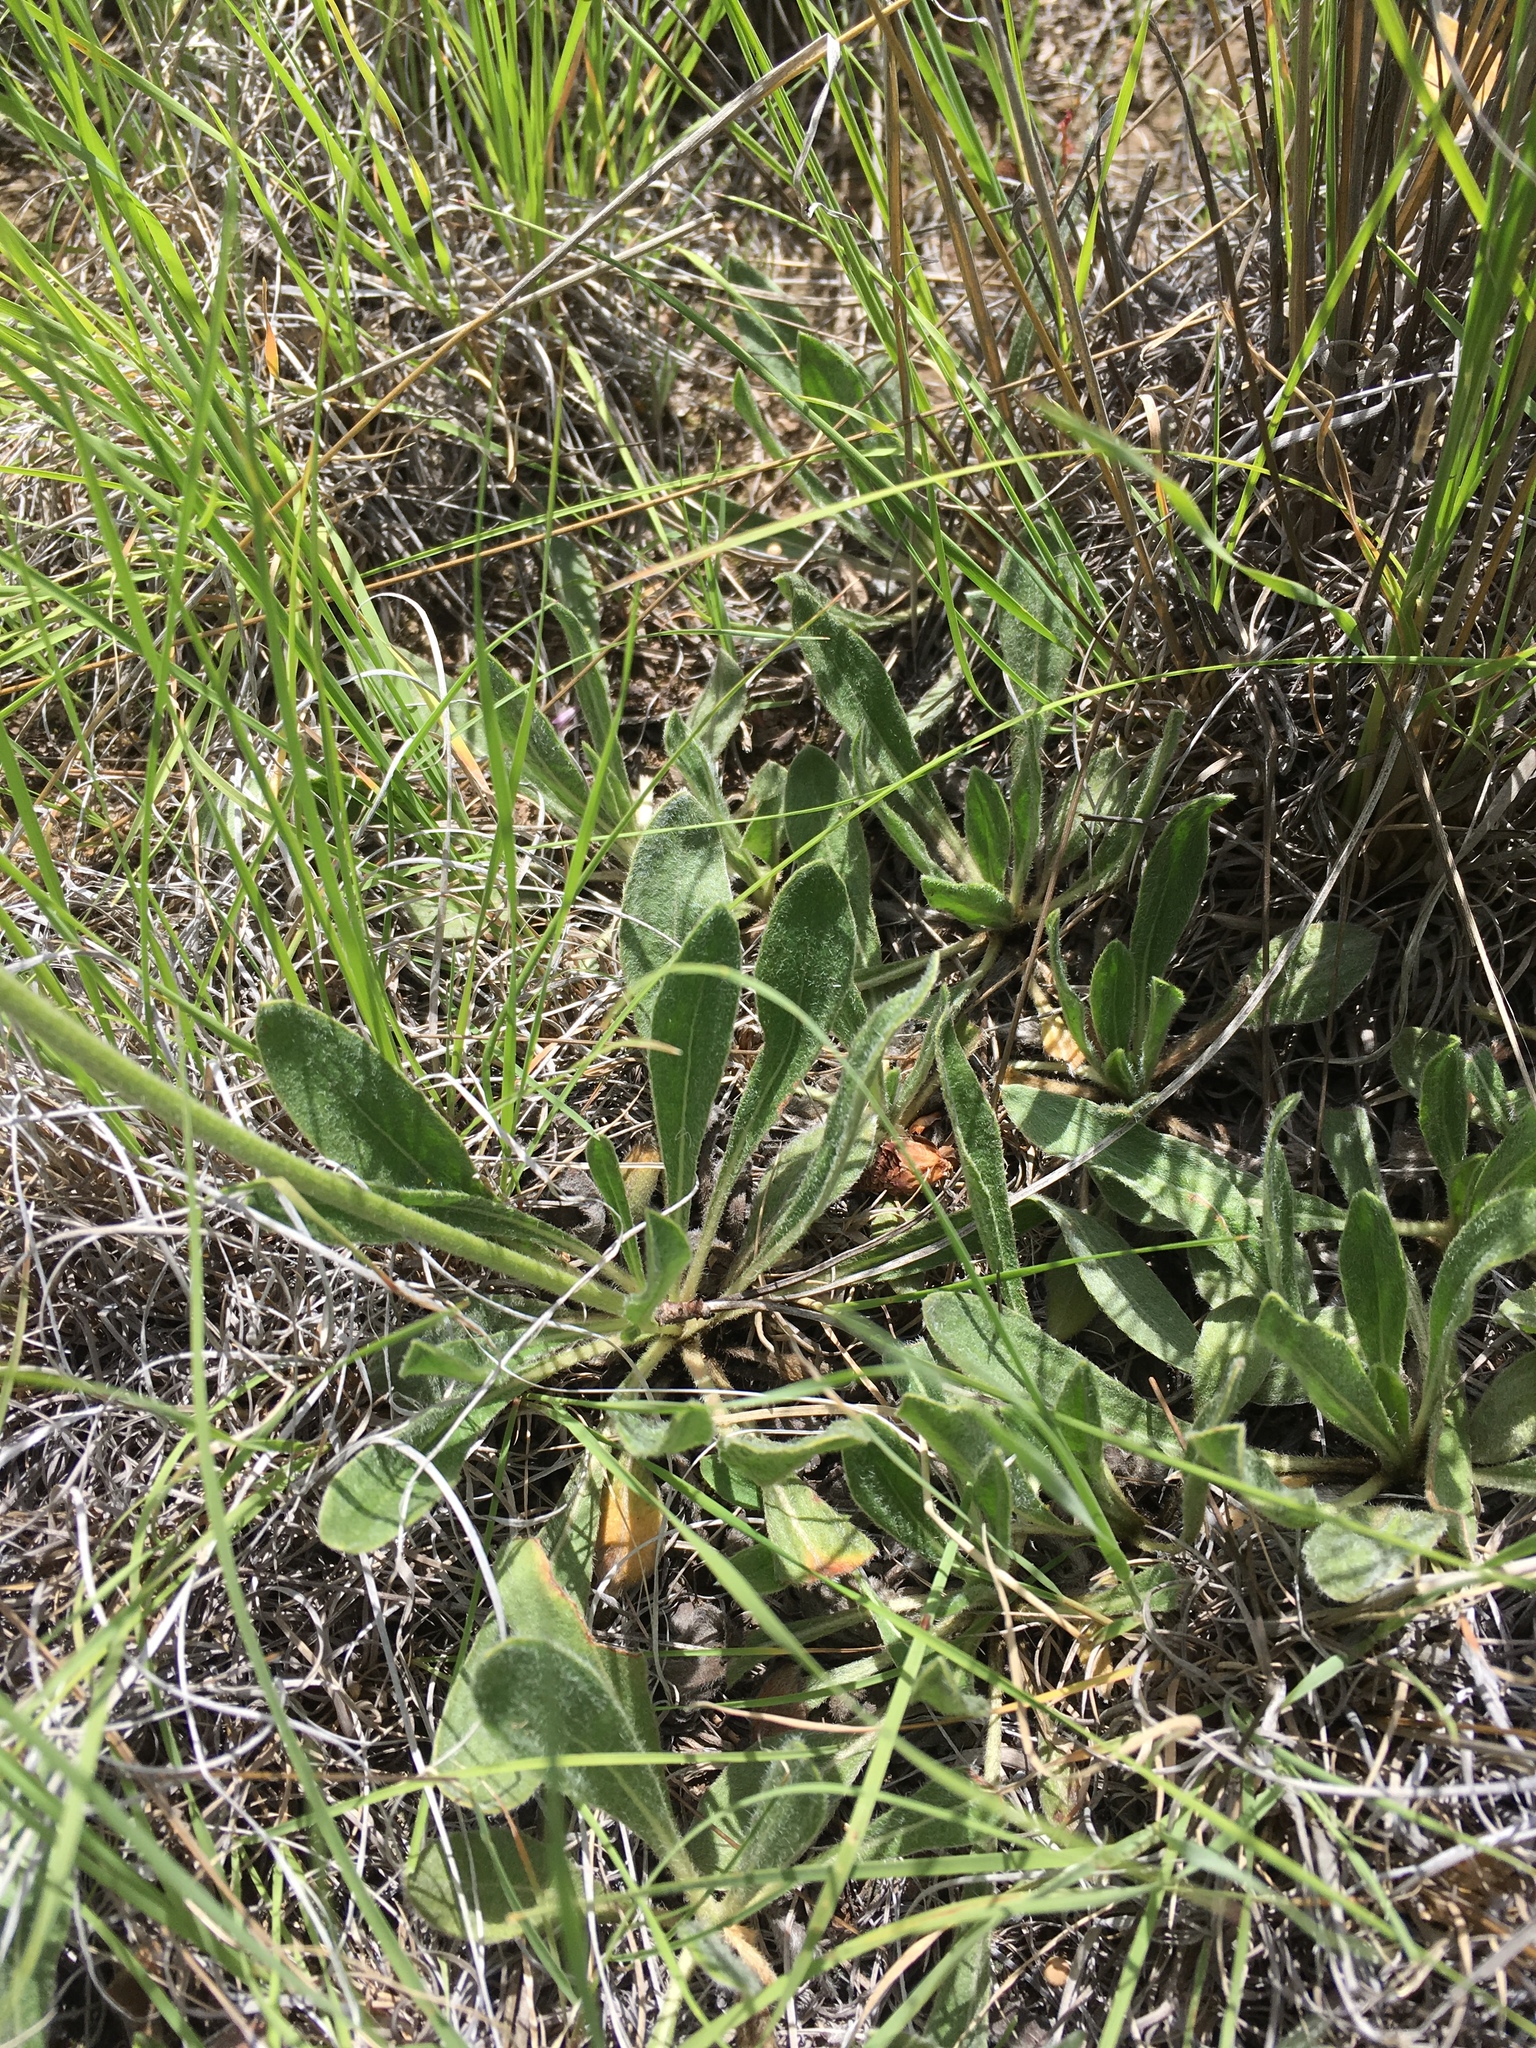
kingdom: Plantae
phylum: Tracheophyta
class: Magnoliopsida
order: Caryophyllales
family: Polygonaceae
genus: Eriogonum
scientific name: Eriogonum hieraciifolium
